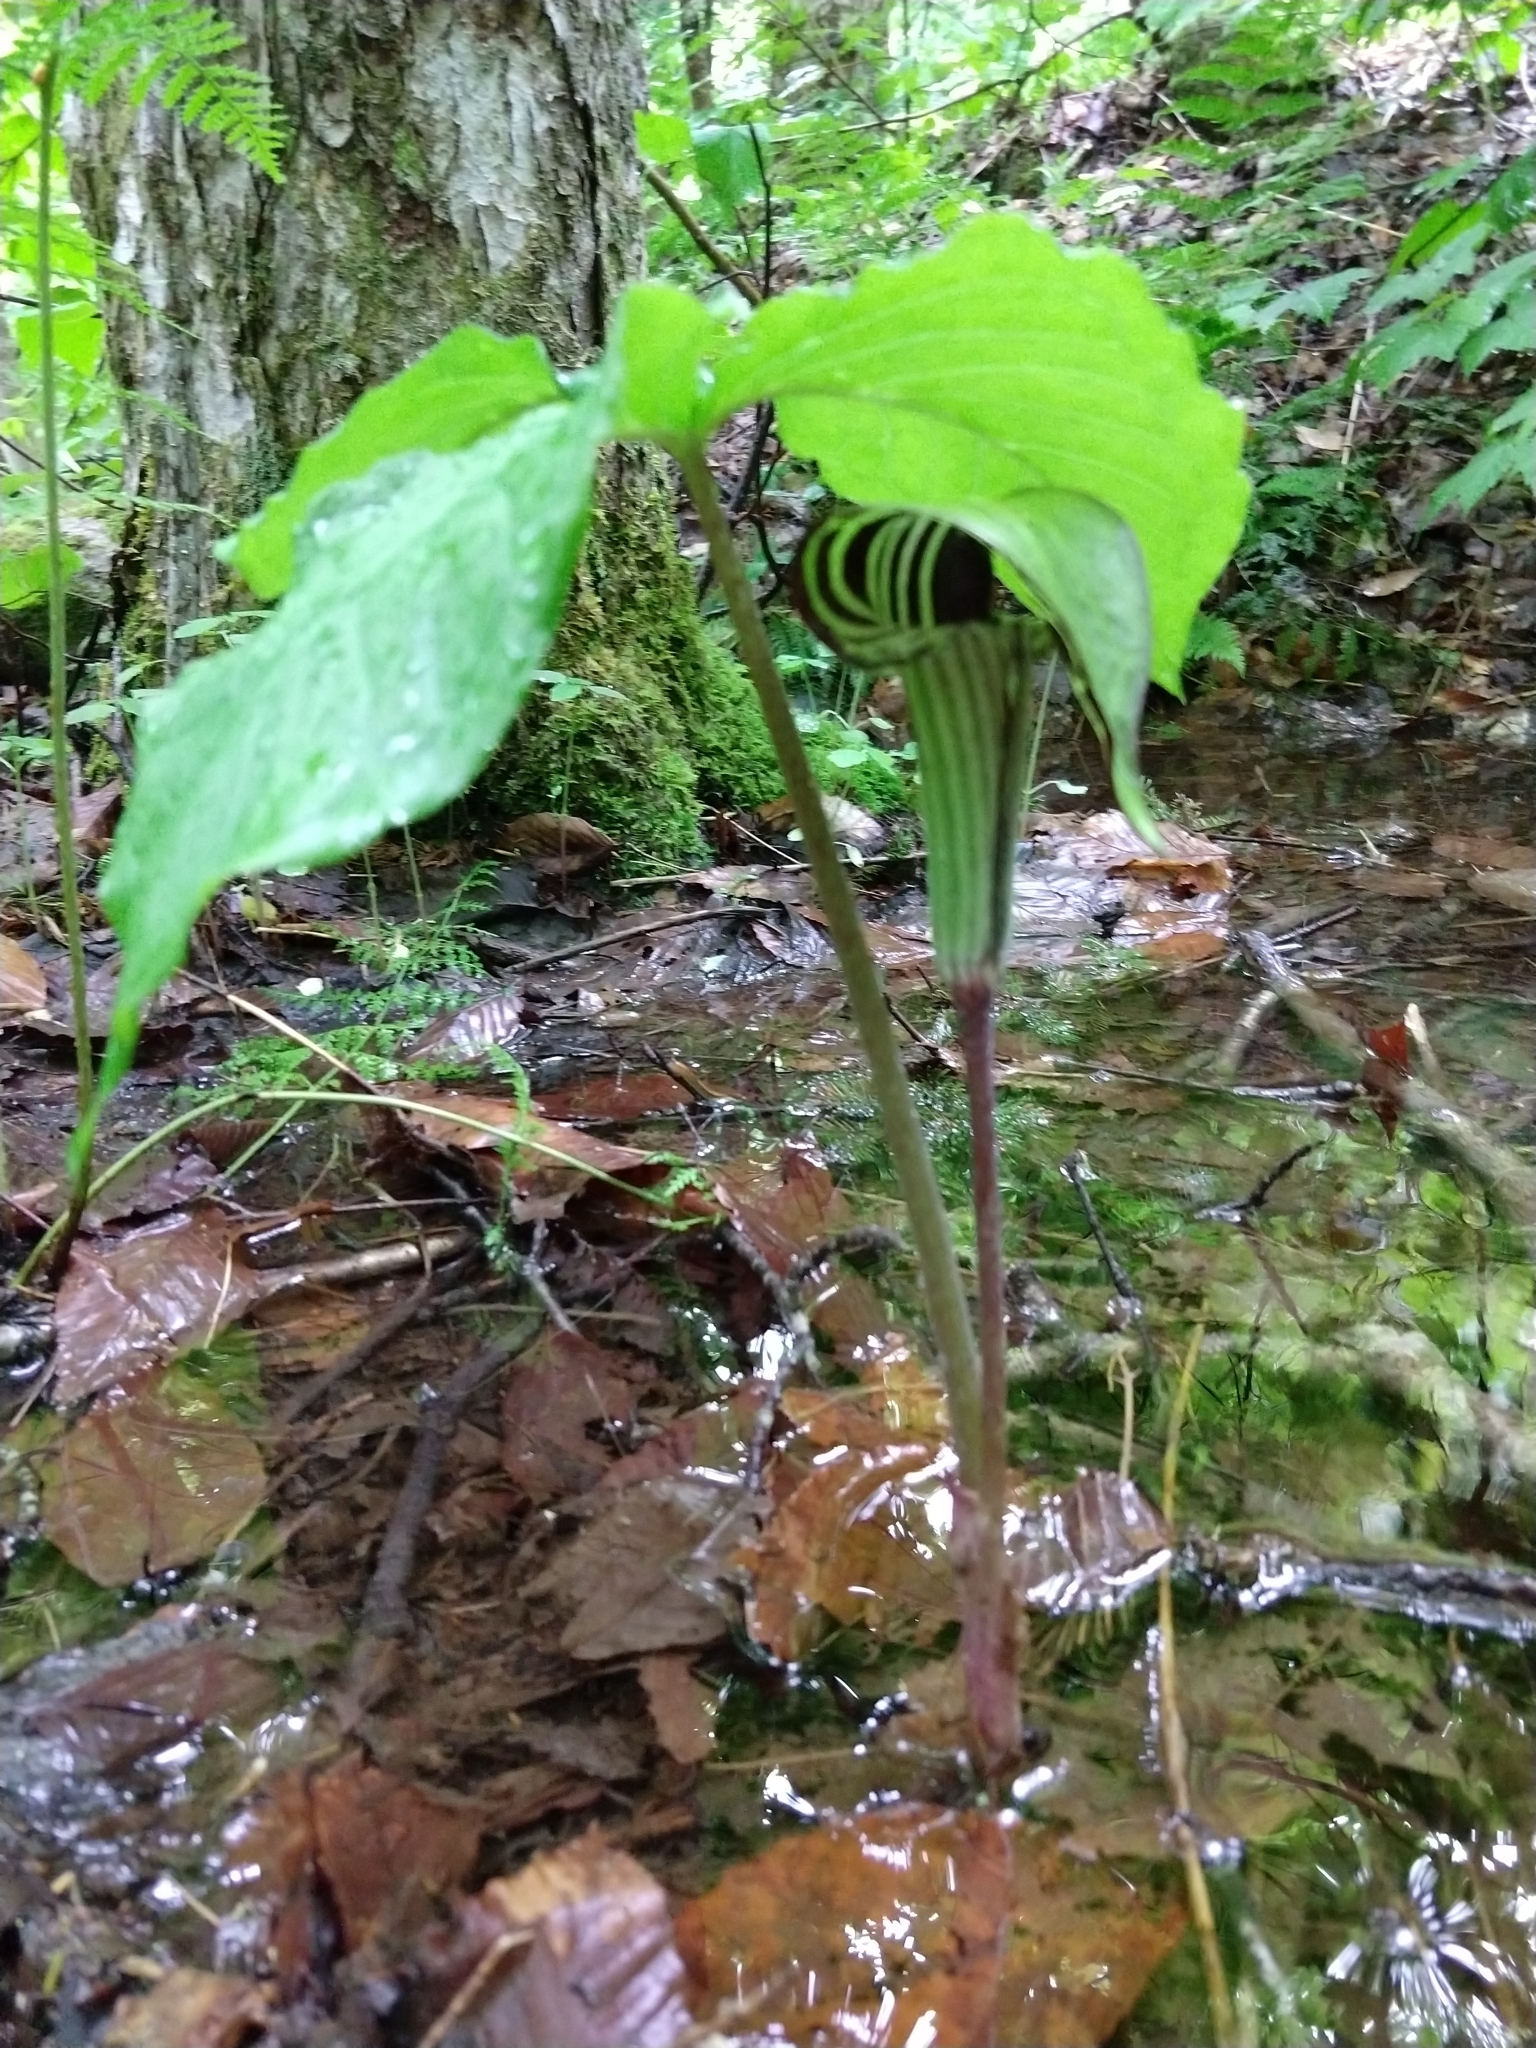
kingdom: Plantae
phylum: Tracheophyta
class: Liliopsida
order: Alismatales
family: Araceae
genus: Arisaema
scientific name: Arisaema triphyllum
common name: Jack-in-the-pulpit
